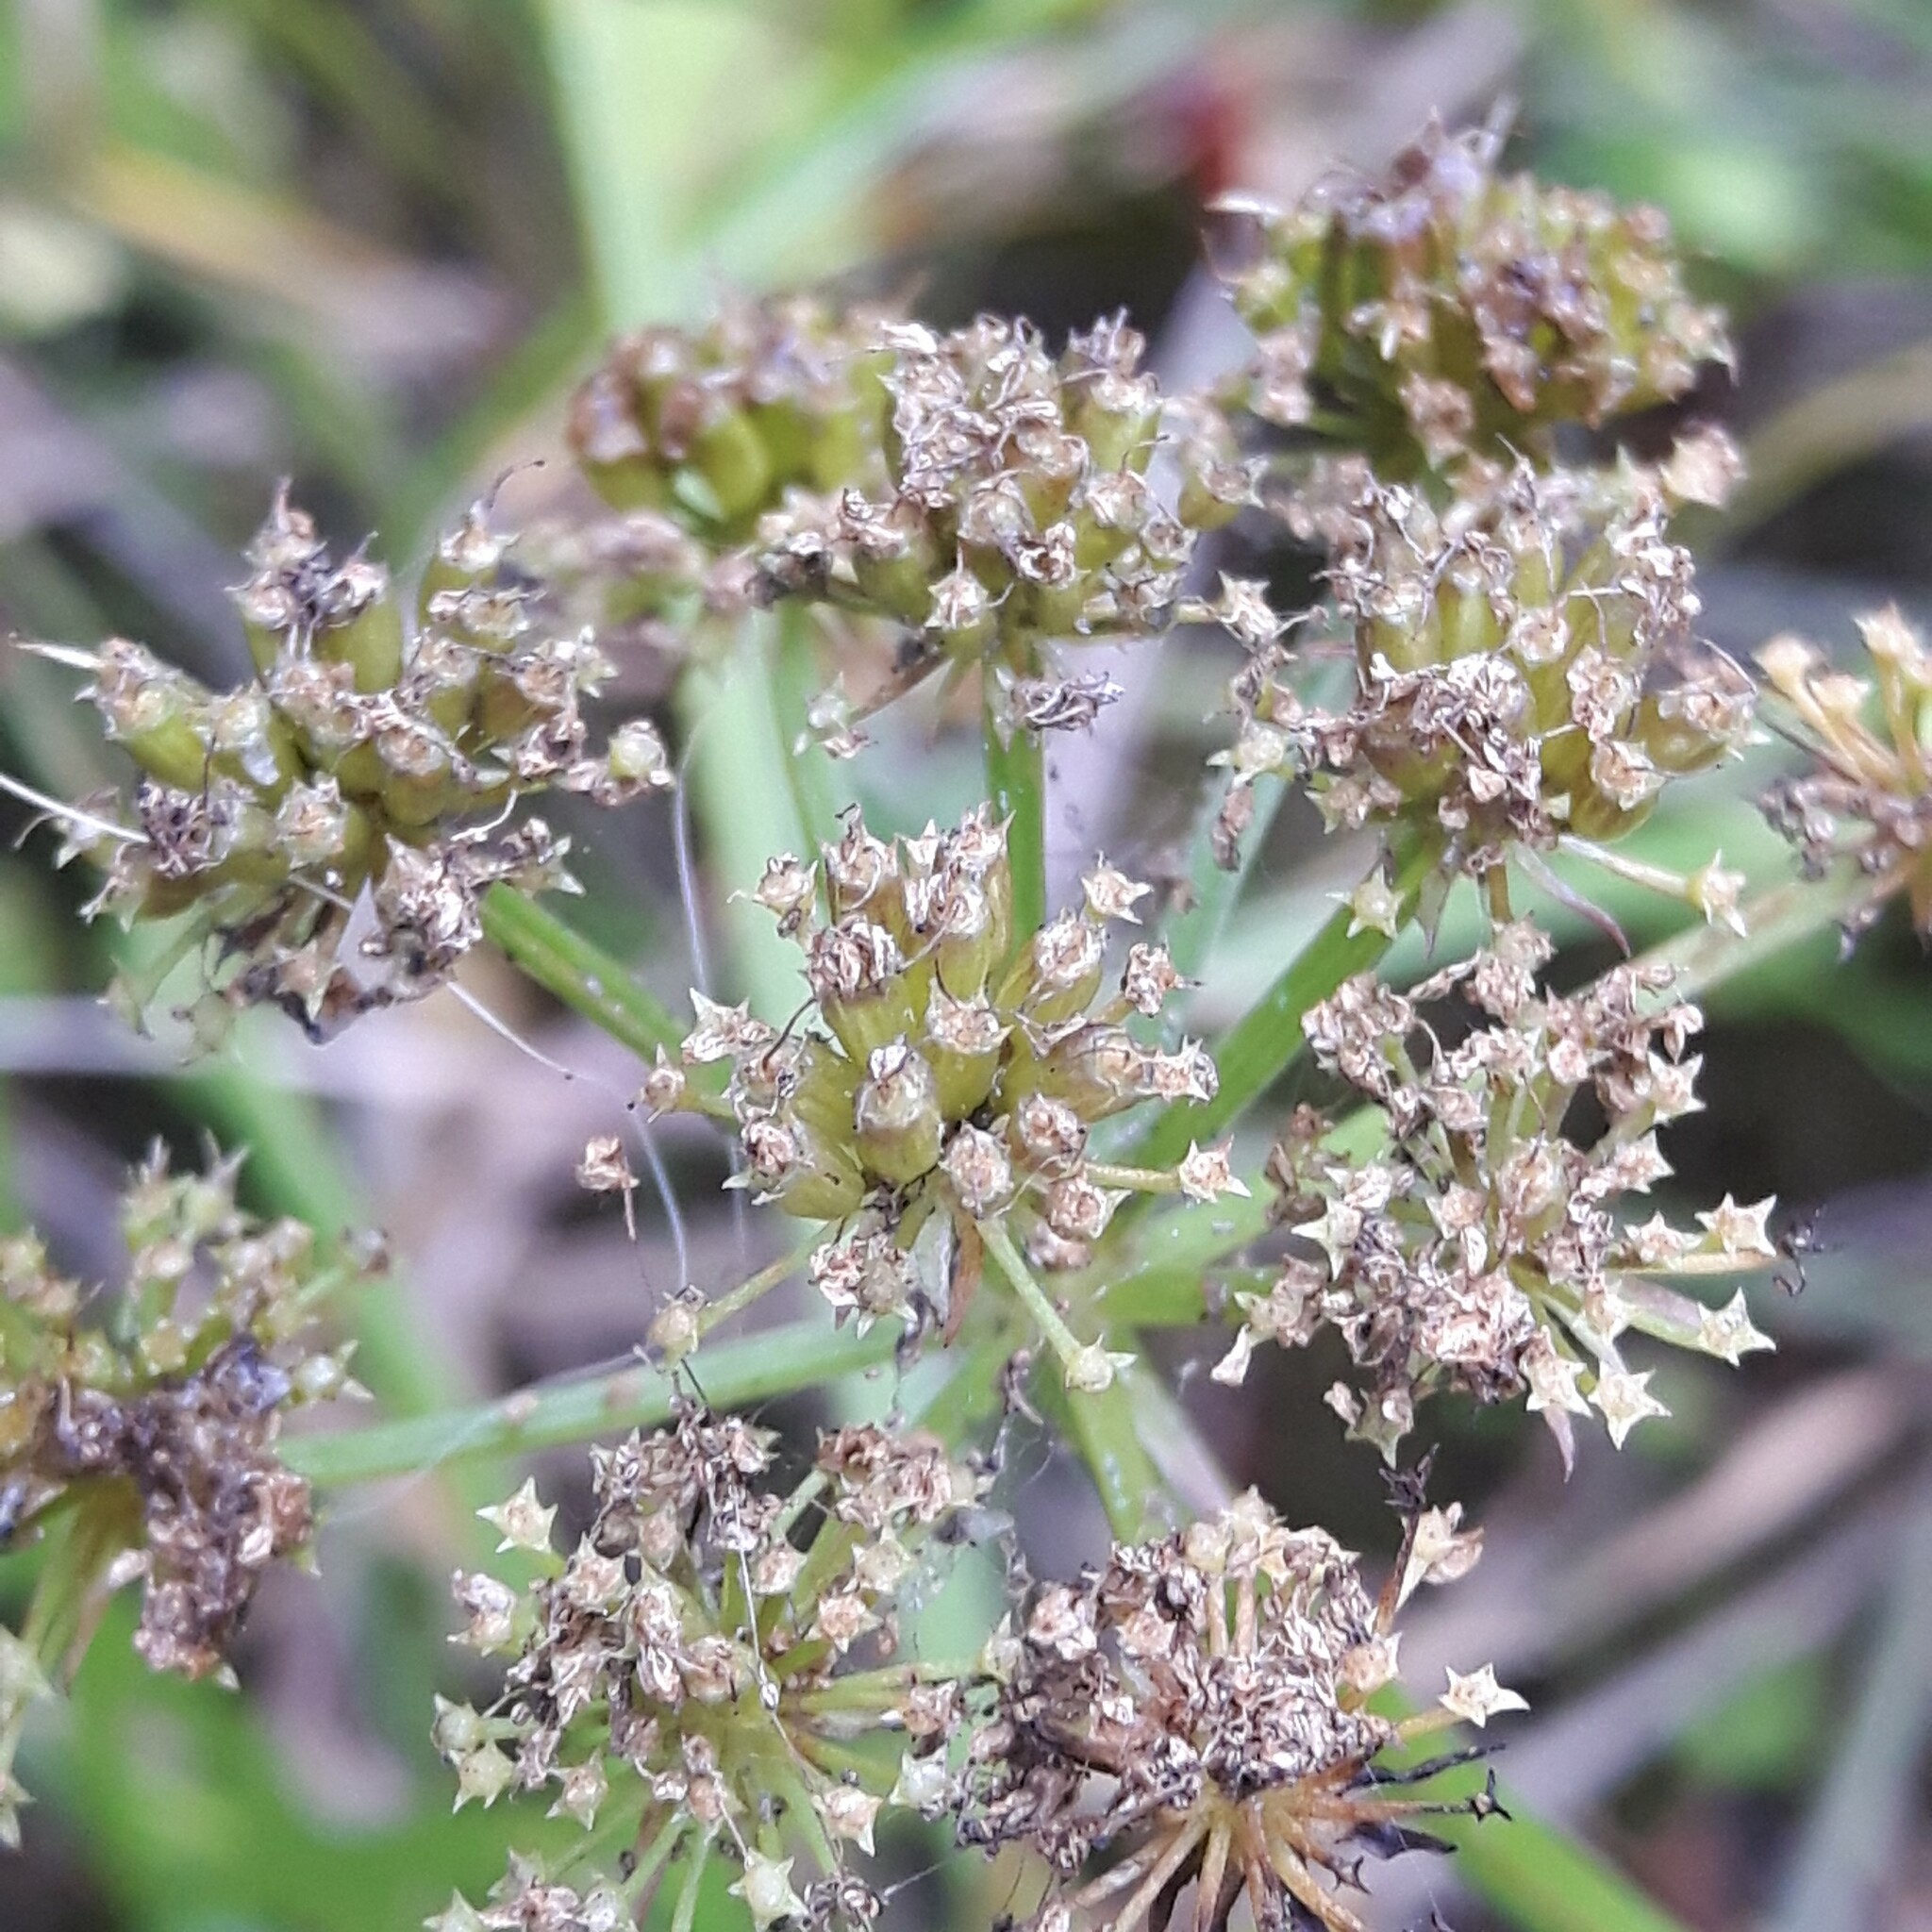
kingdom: Plantae
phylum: Tracheophyta
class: Magnoliopsida
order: Apiales
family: Apiaceae
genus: Oenanthe
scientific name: Oenanthe sarmentosa
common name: American water-parsley
